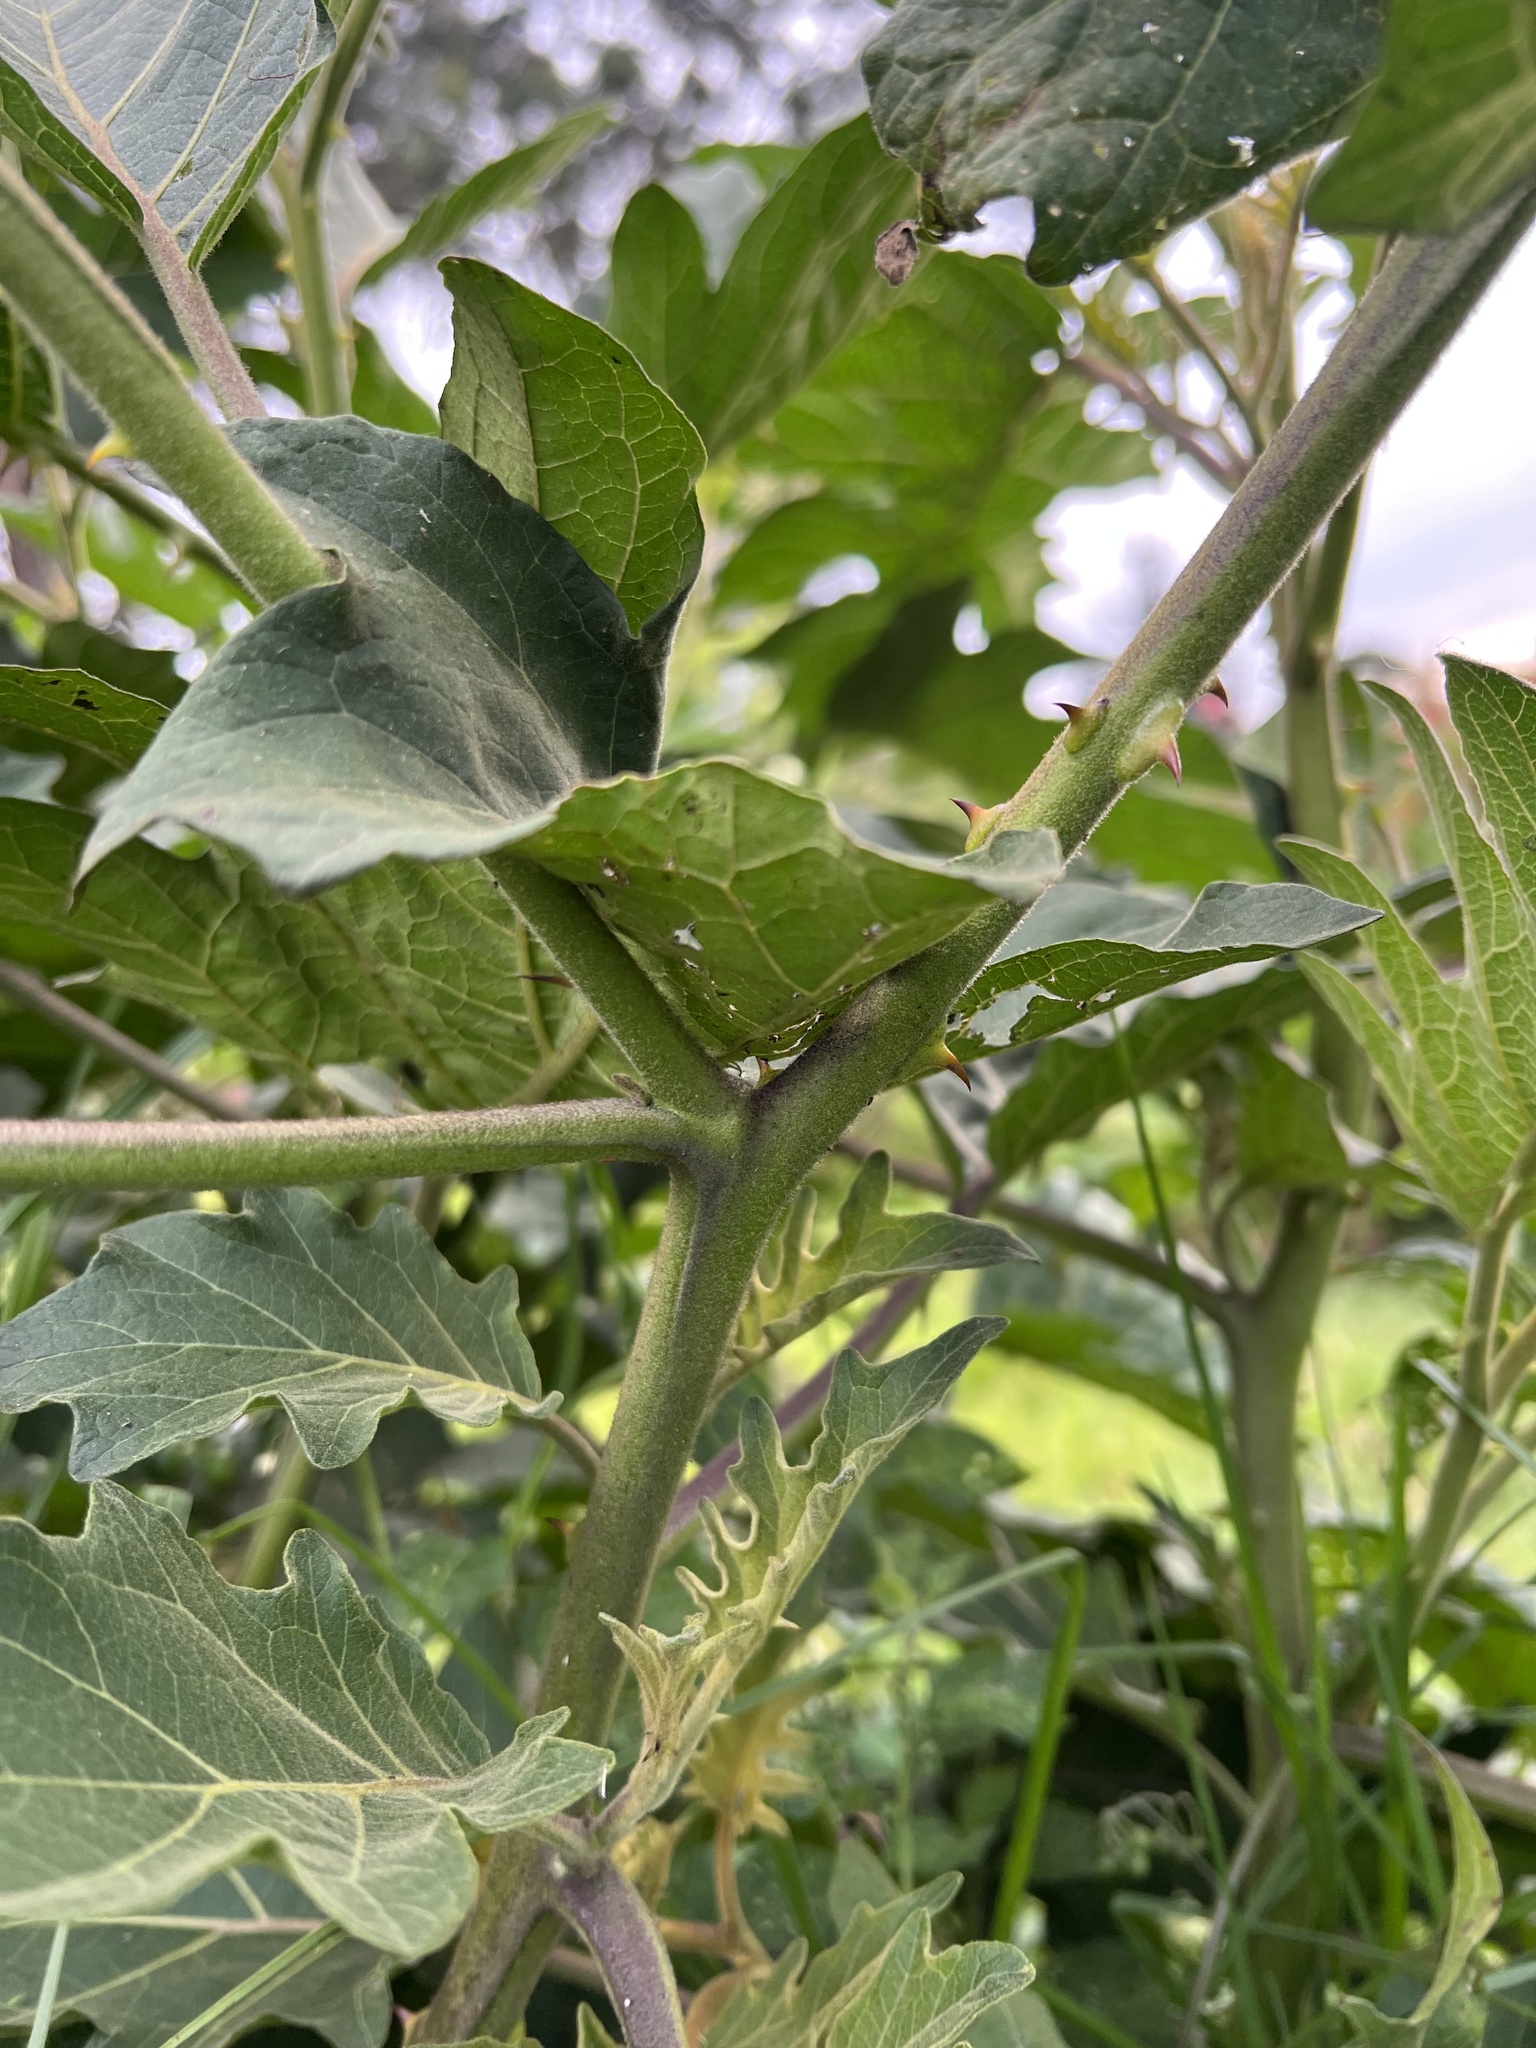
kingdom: Plantae
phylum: Tracheophyta
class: Magnoliopsida
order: Solanales
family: Solanaceae
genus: Solanum
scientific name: Solanum stellatiglandulosum
